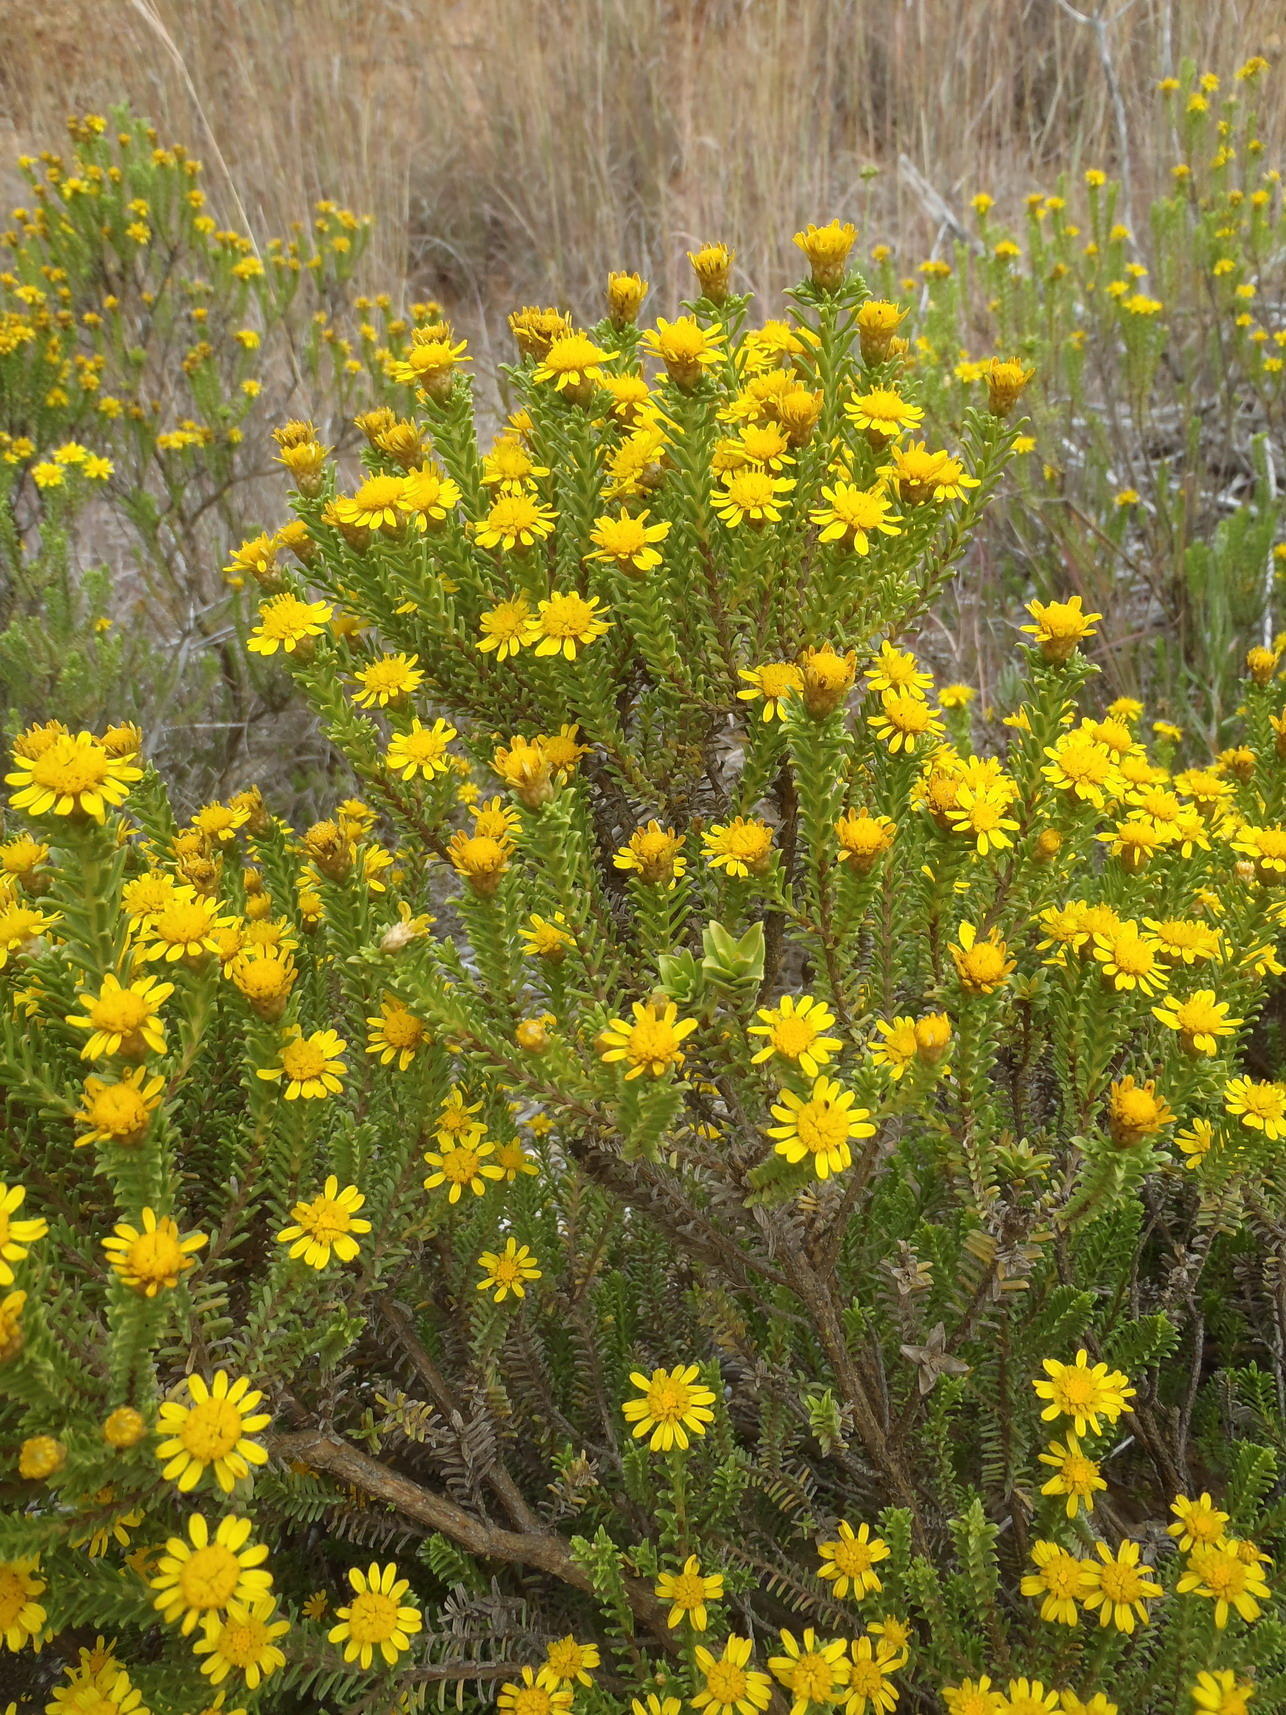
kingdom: Plantae
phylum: Tracheophyta
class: Magnoliopsida
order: Asterales
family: Asteraceae
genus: Oedera
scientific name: Oedera uniflora
